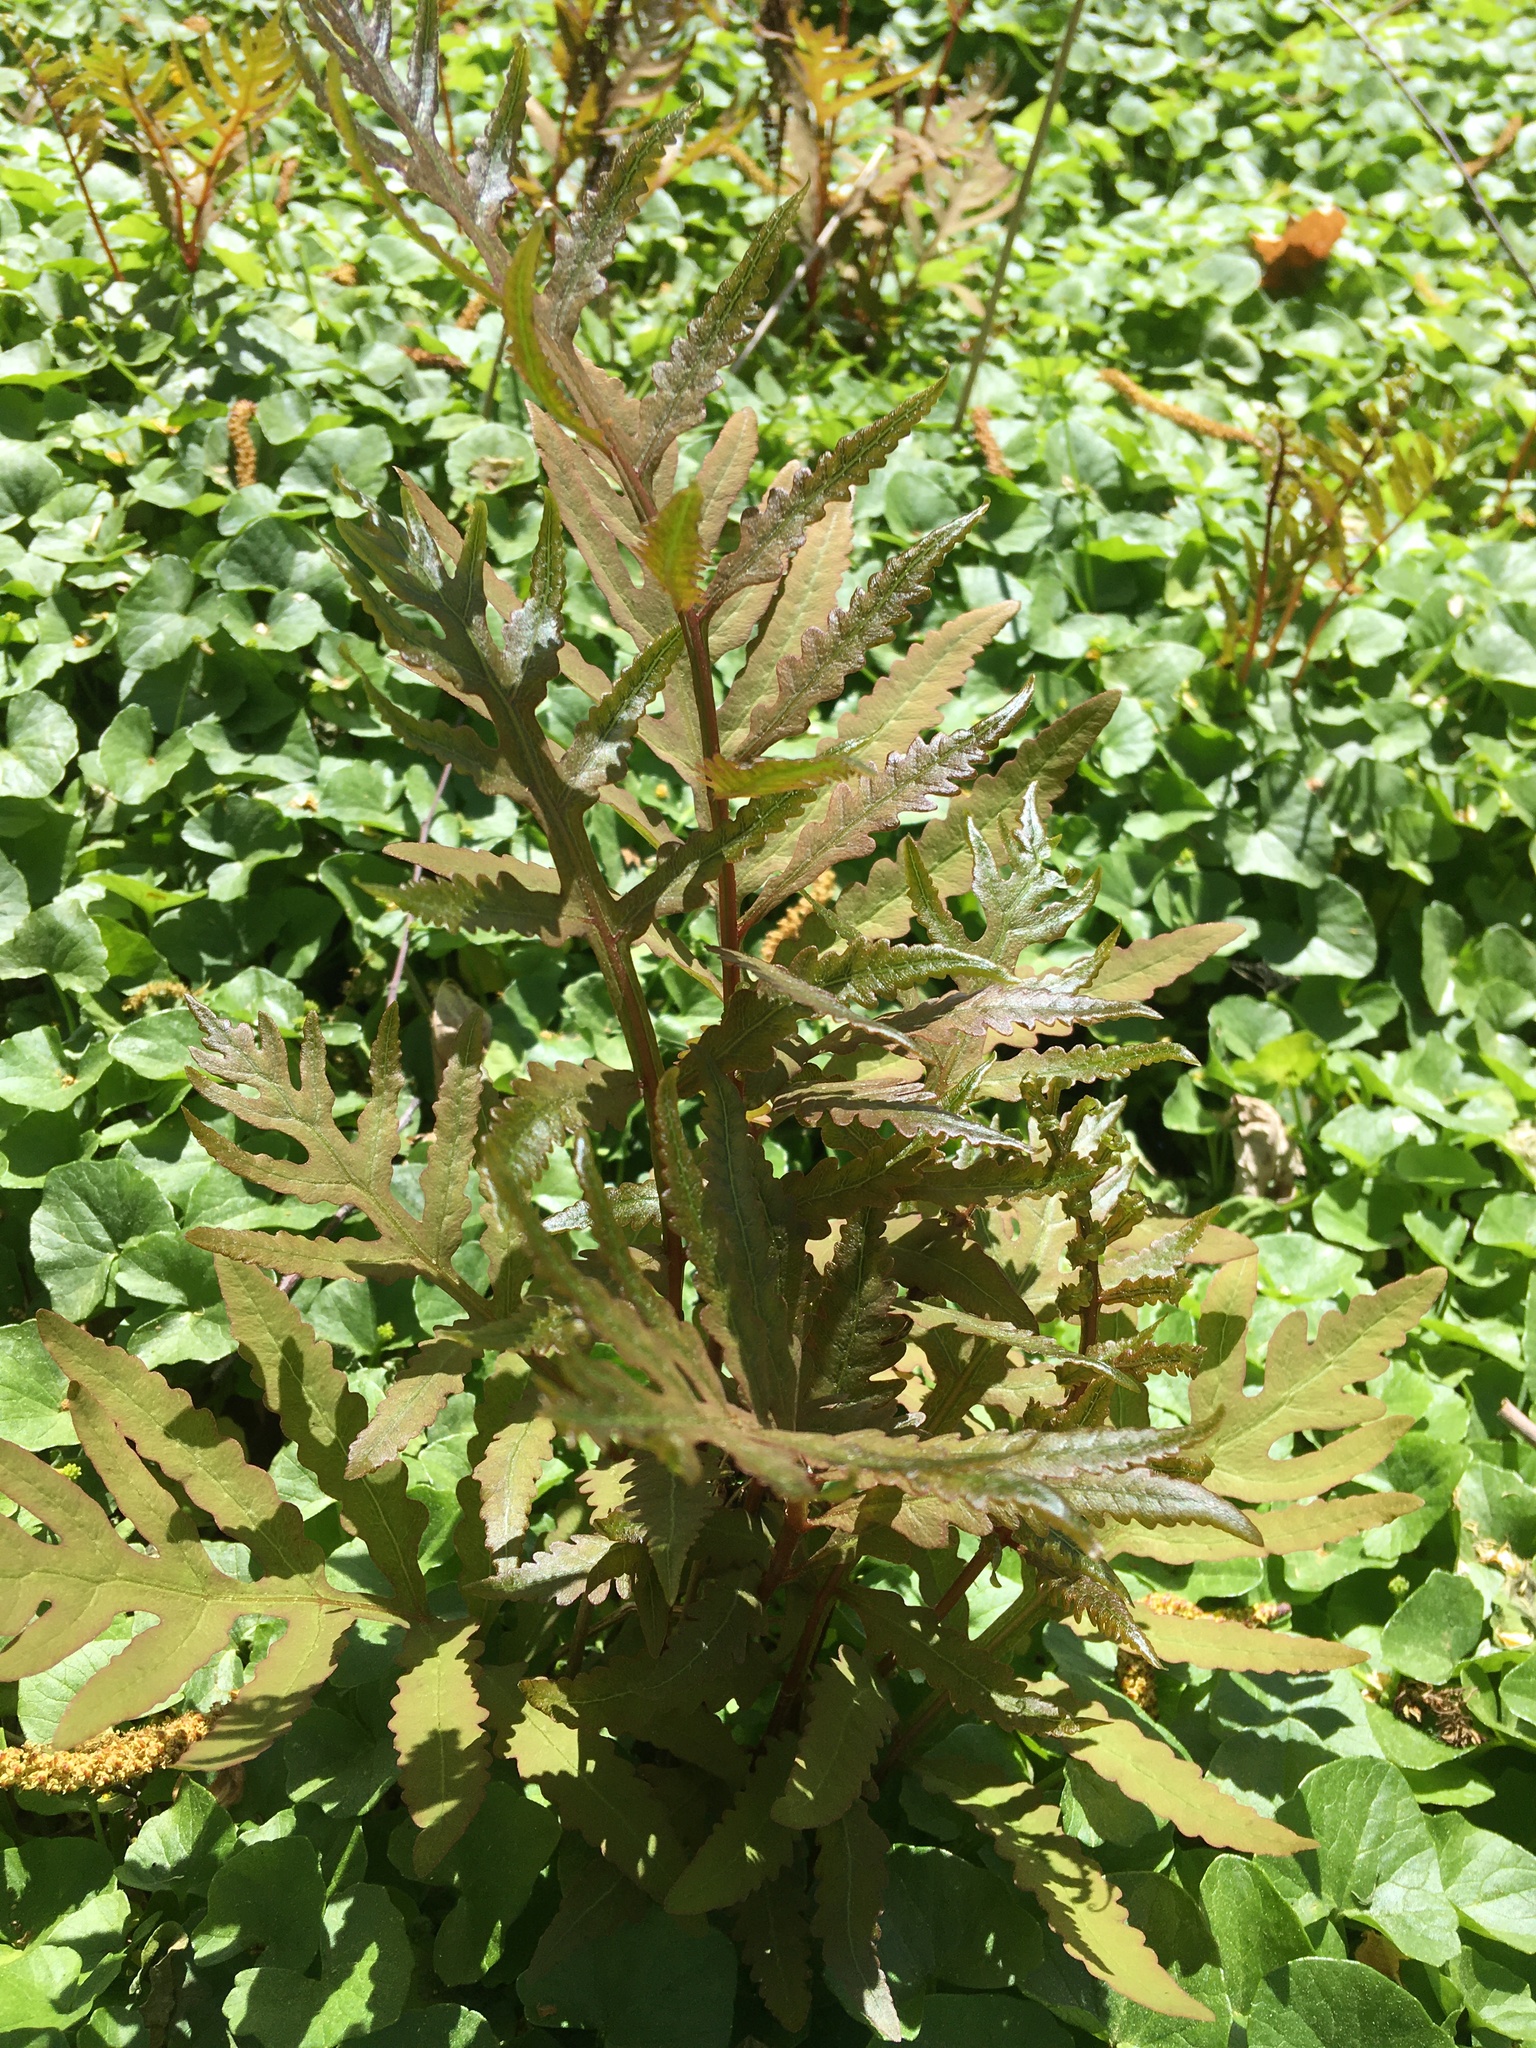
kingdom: Plantae
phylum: Tracheophyta
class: Polypodiopsida
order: Polypodiales
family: Onocleaceae
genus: Onoclea
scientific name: Onoclea sensibilis
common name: Sensitive fern
